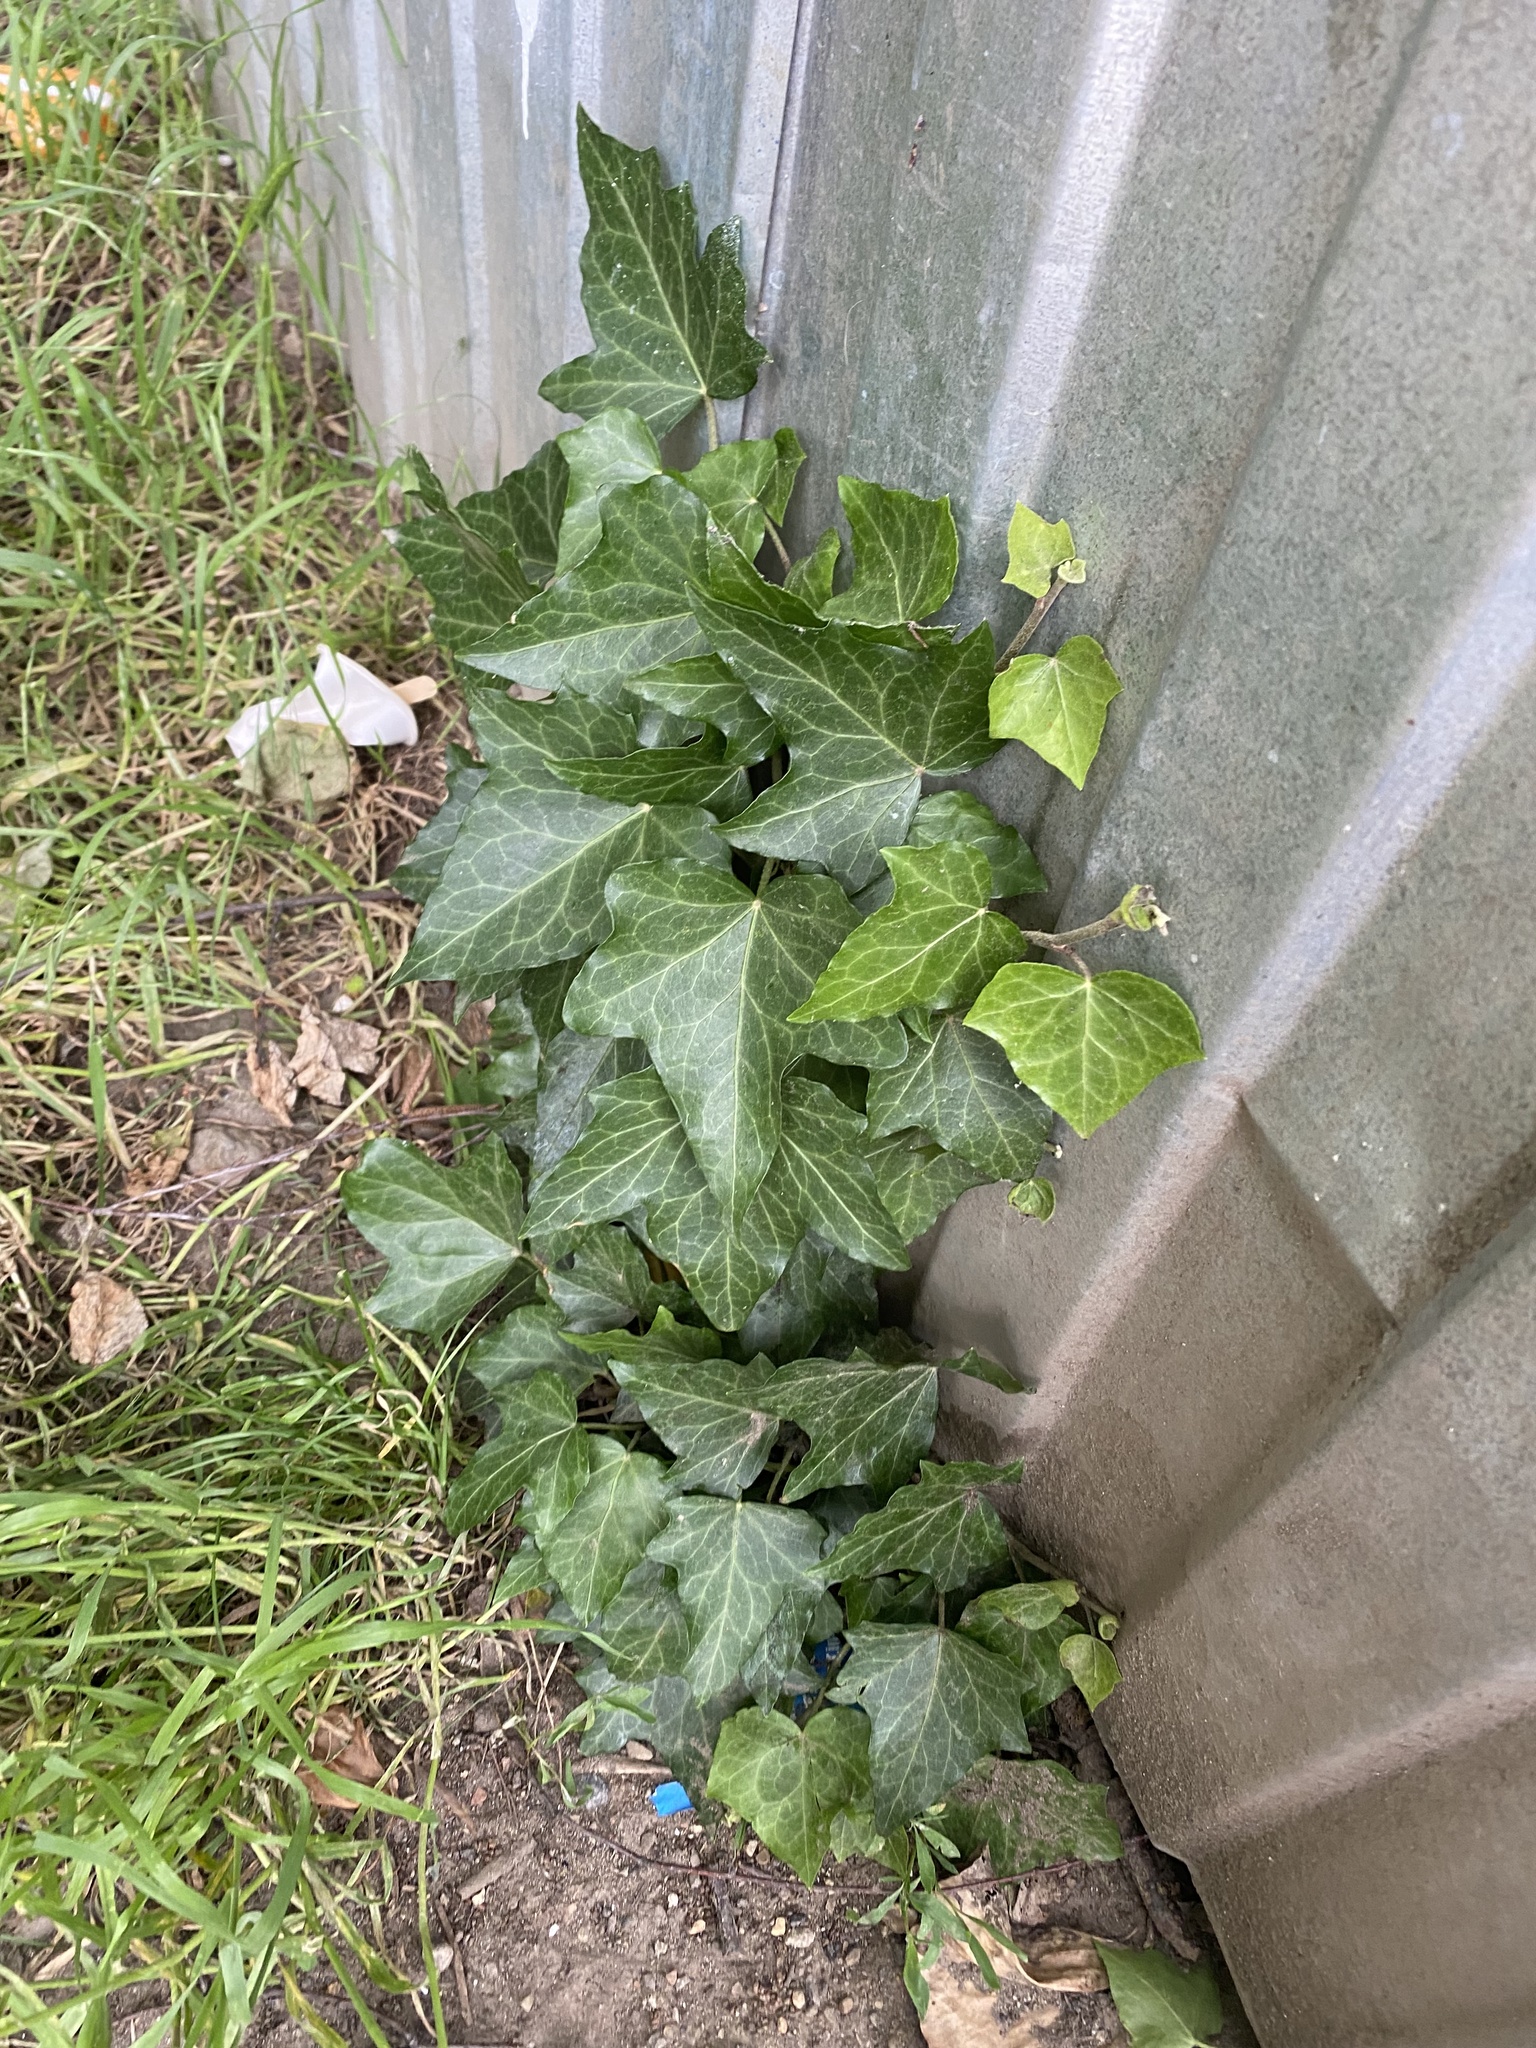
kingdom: Plantae
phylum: Tracheophyta
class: Magnoliopsida
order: Apiales
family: Araliaceae
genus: Hedera
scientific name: Hedera helix
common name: Ivy
